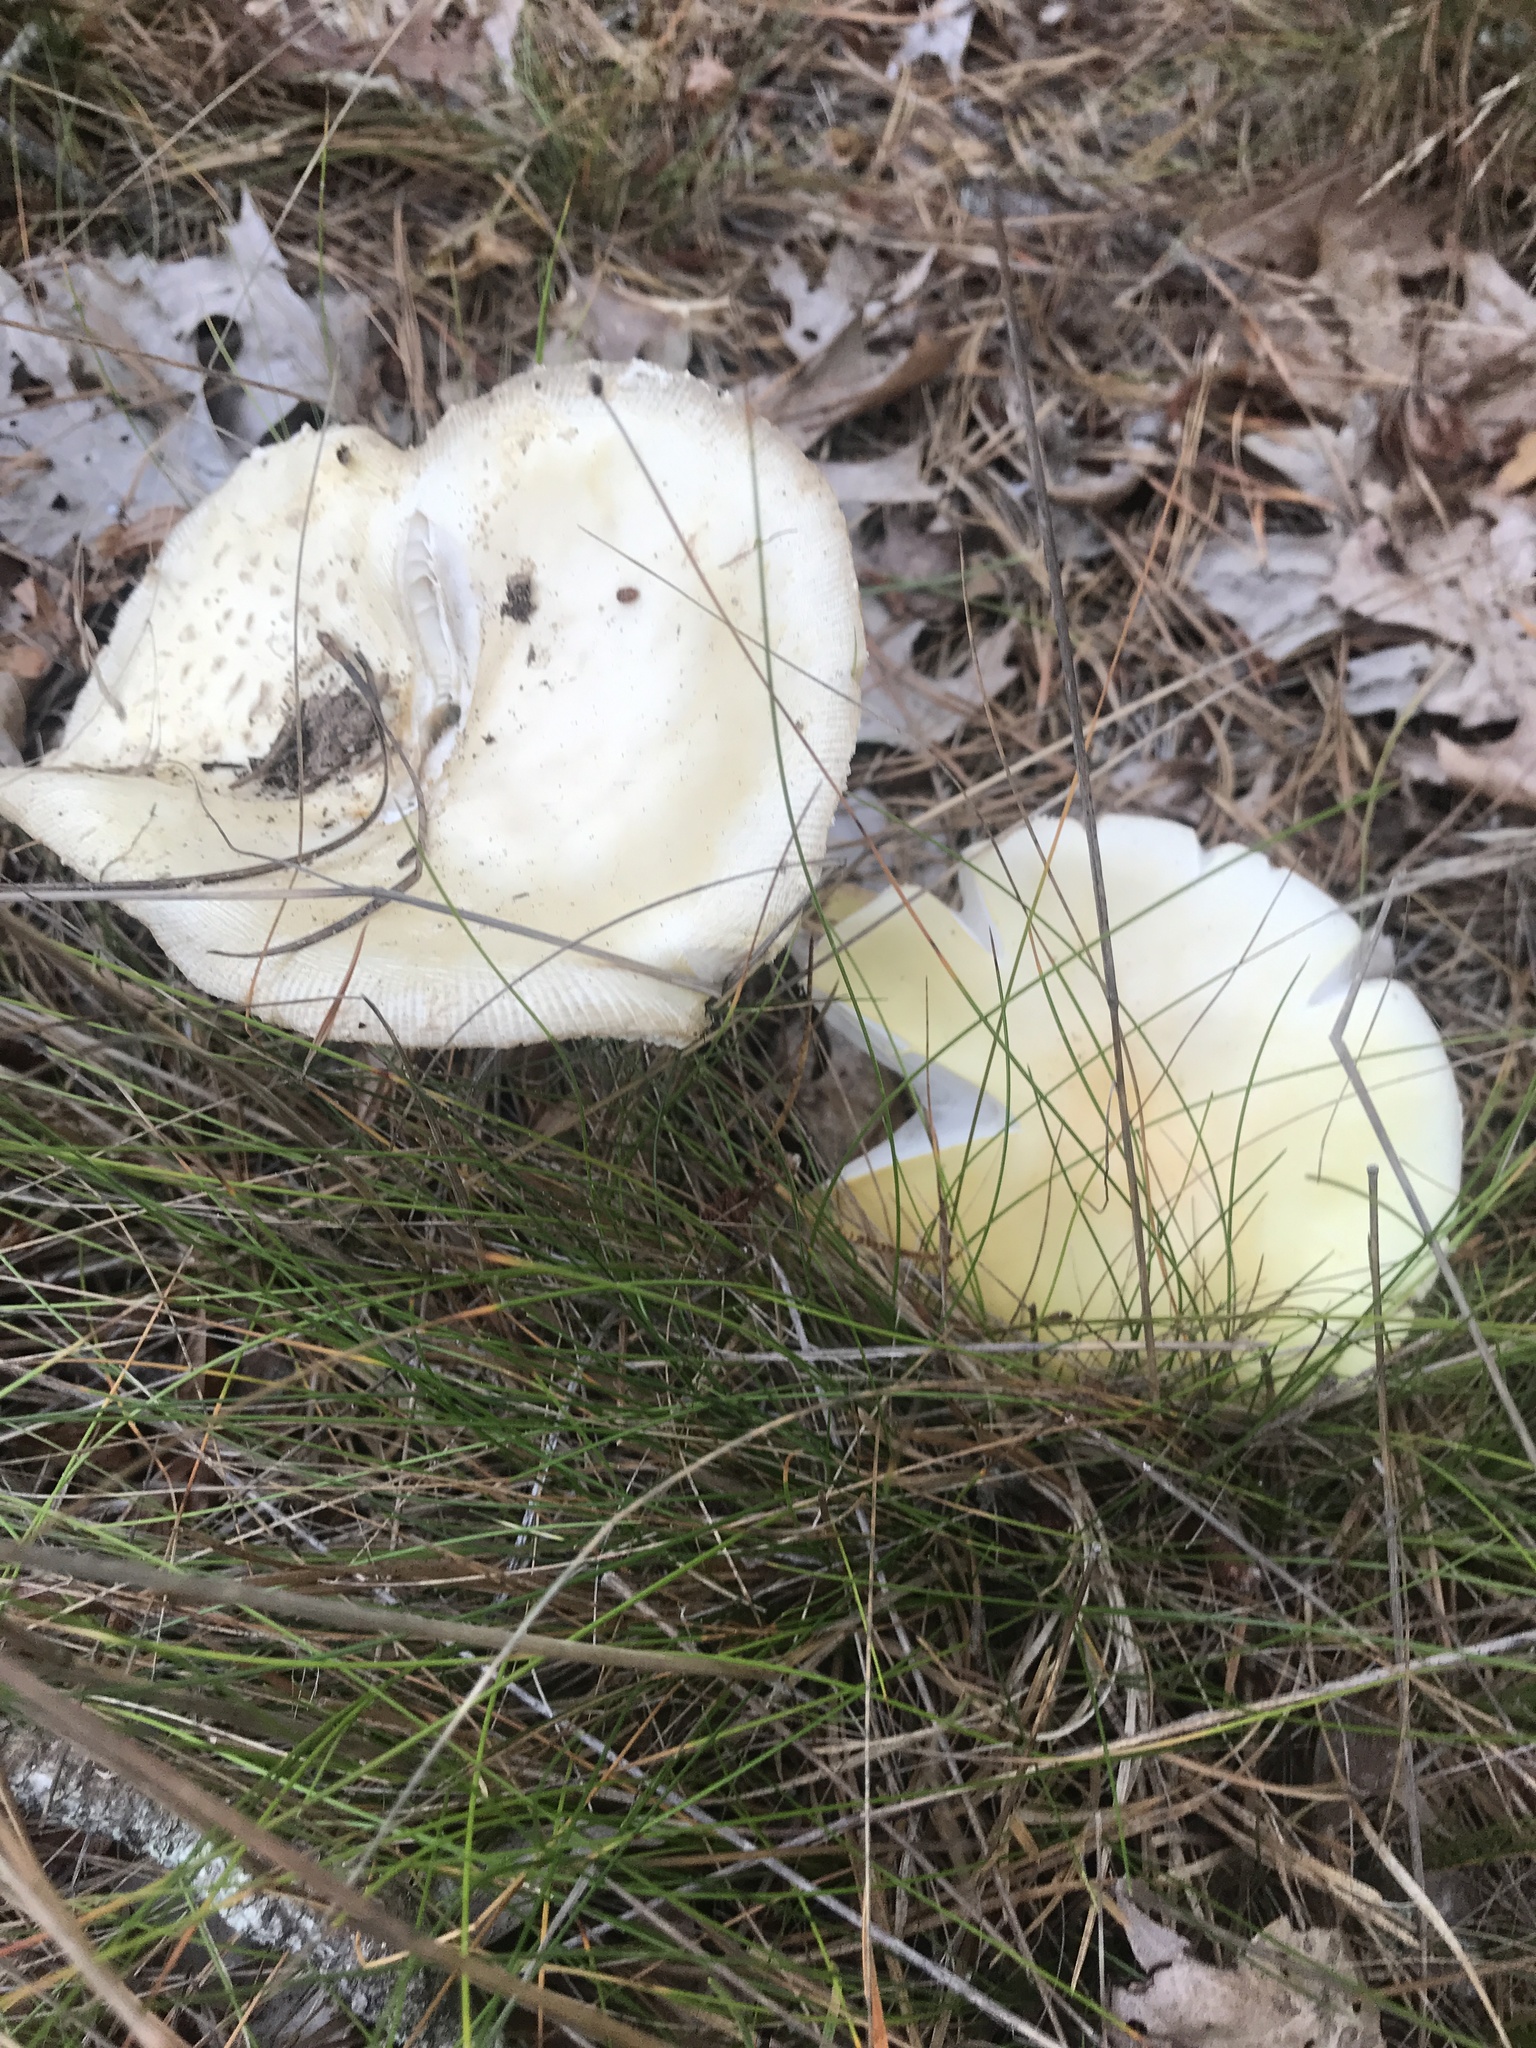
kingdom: Fungi
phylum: Basidiomycota
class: Agaricomycetes
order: Agaricales
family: Amanitaceae
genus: Amanita
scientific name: Amanita muscaria
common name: Fly agaric
